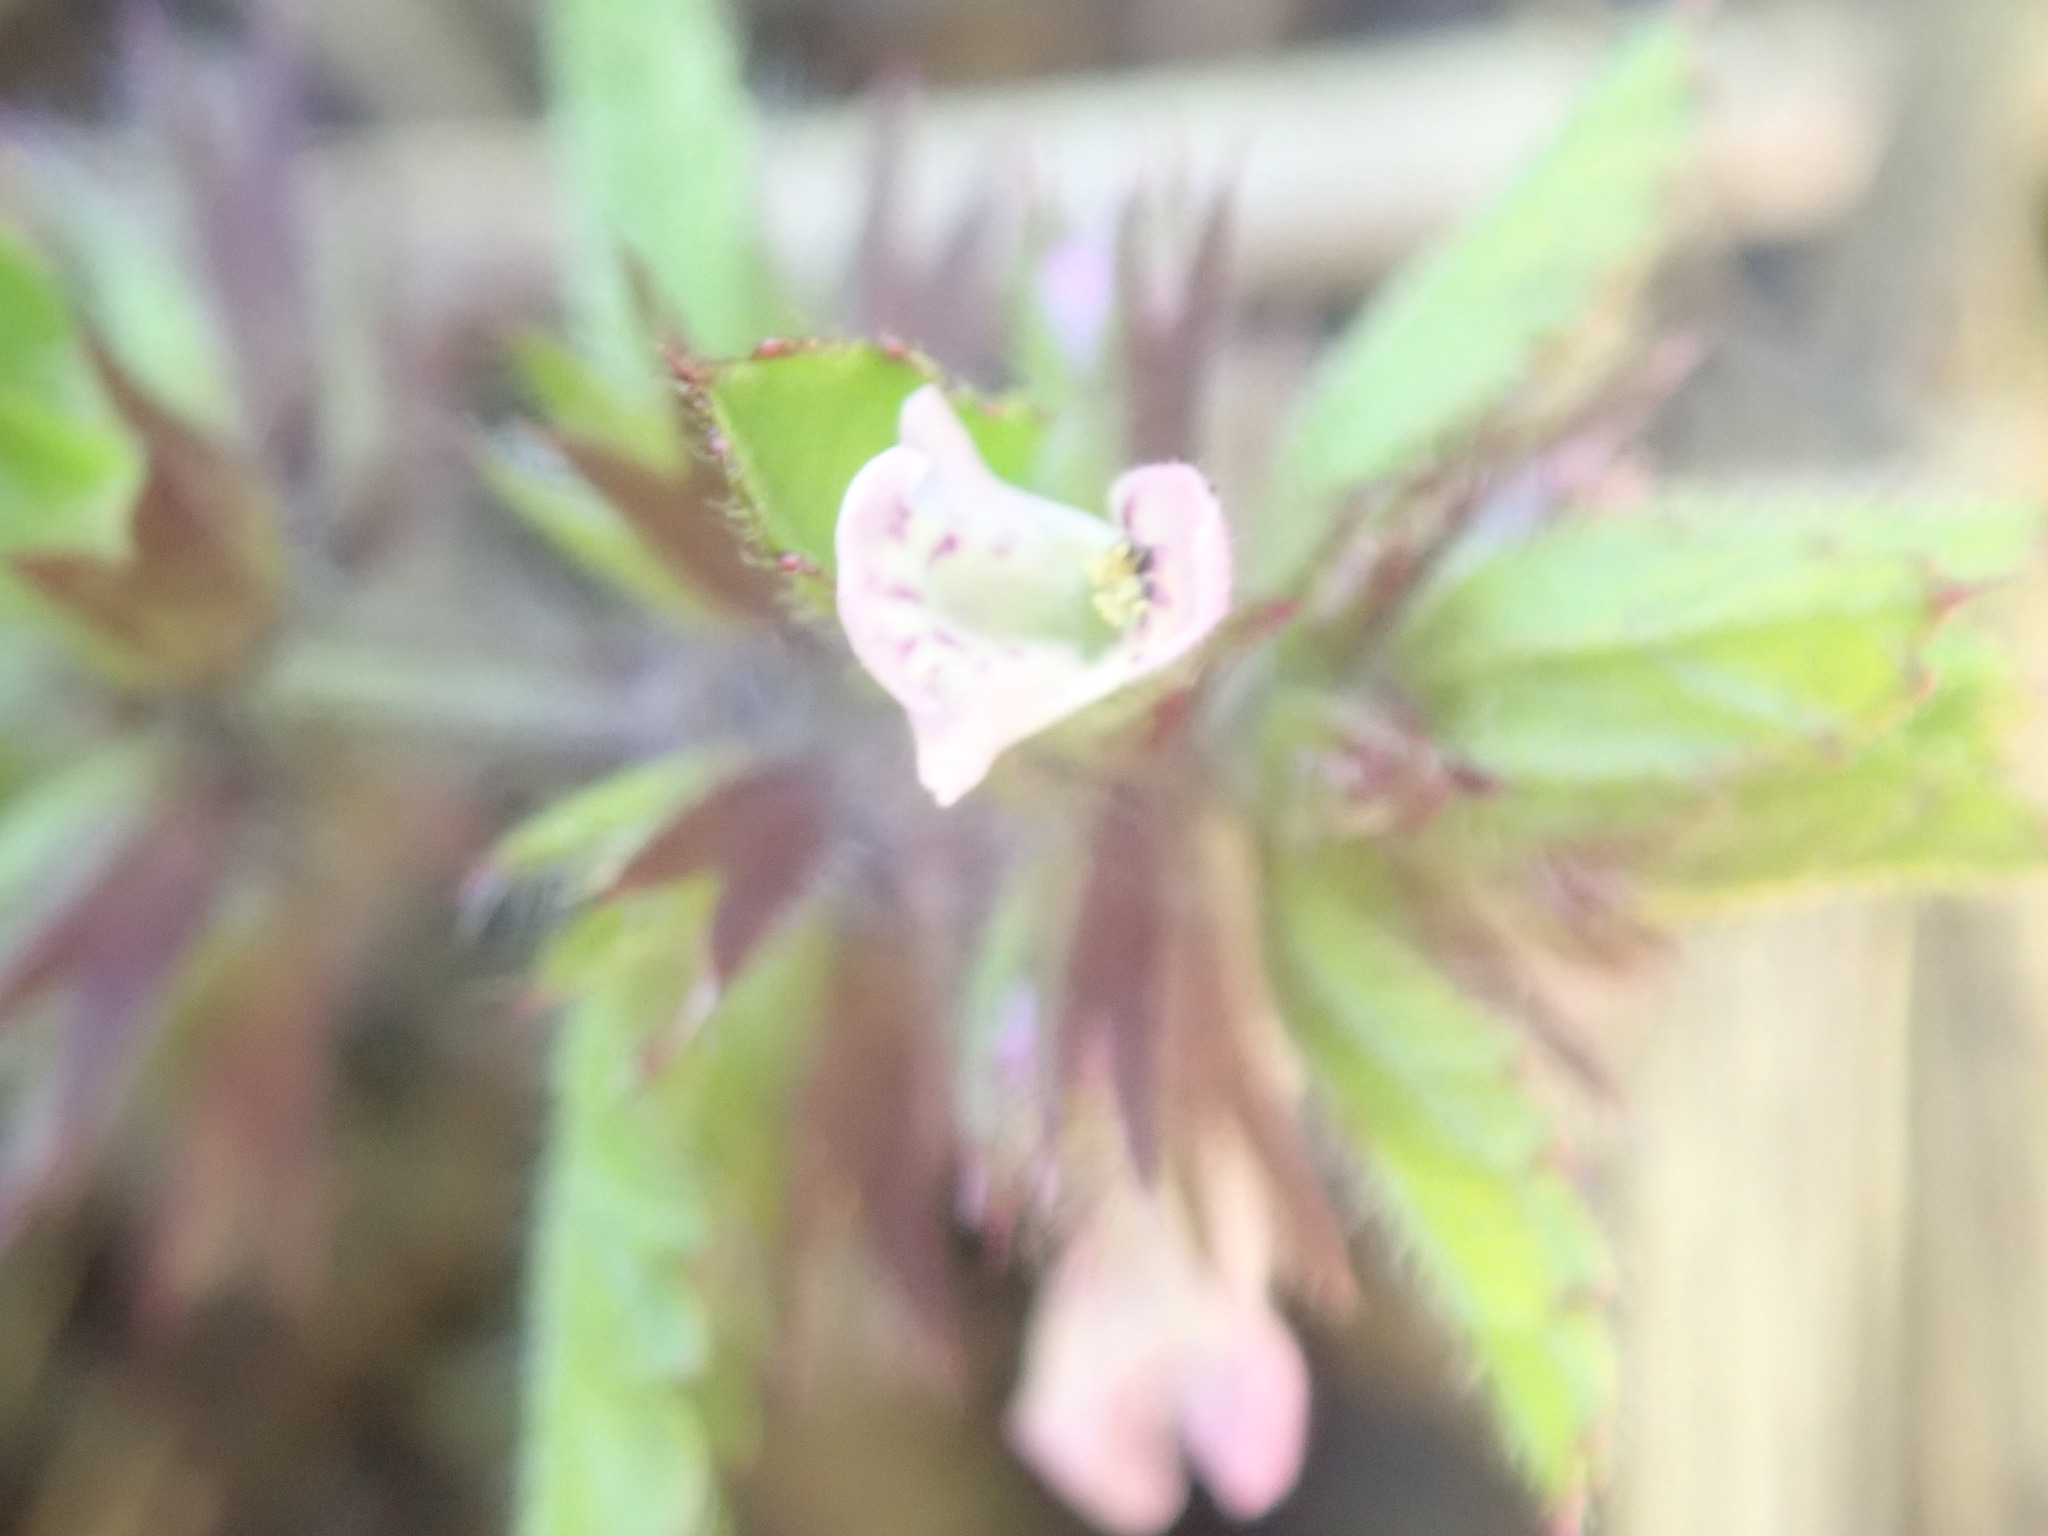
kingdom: Plantae
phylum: Tracheophyta
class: Magnoliopsida
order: Lamiales
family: Lamiaceae
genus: Stachys
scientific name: Stachys arvensis
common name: Field woundwort
